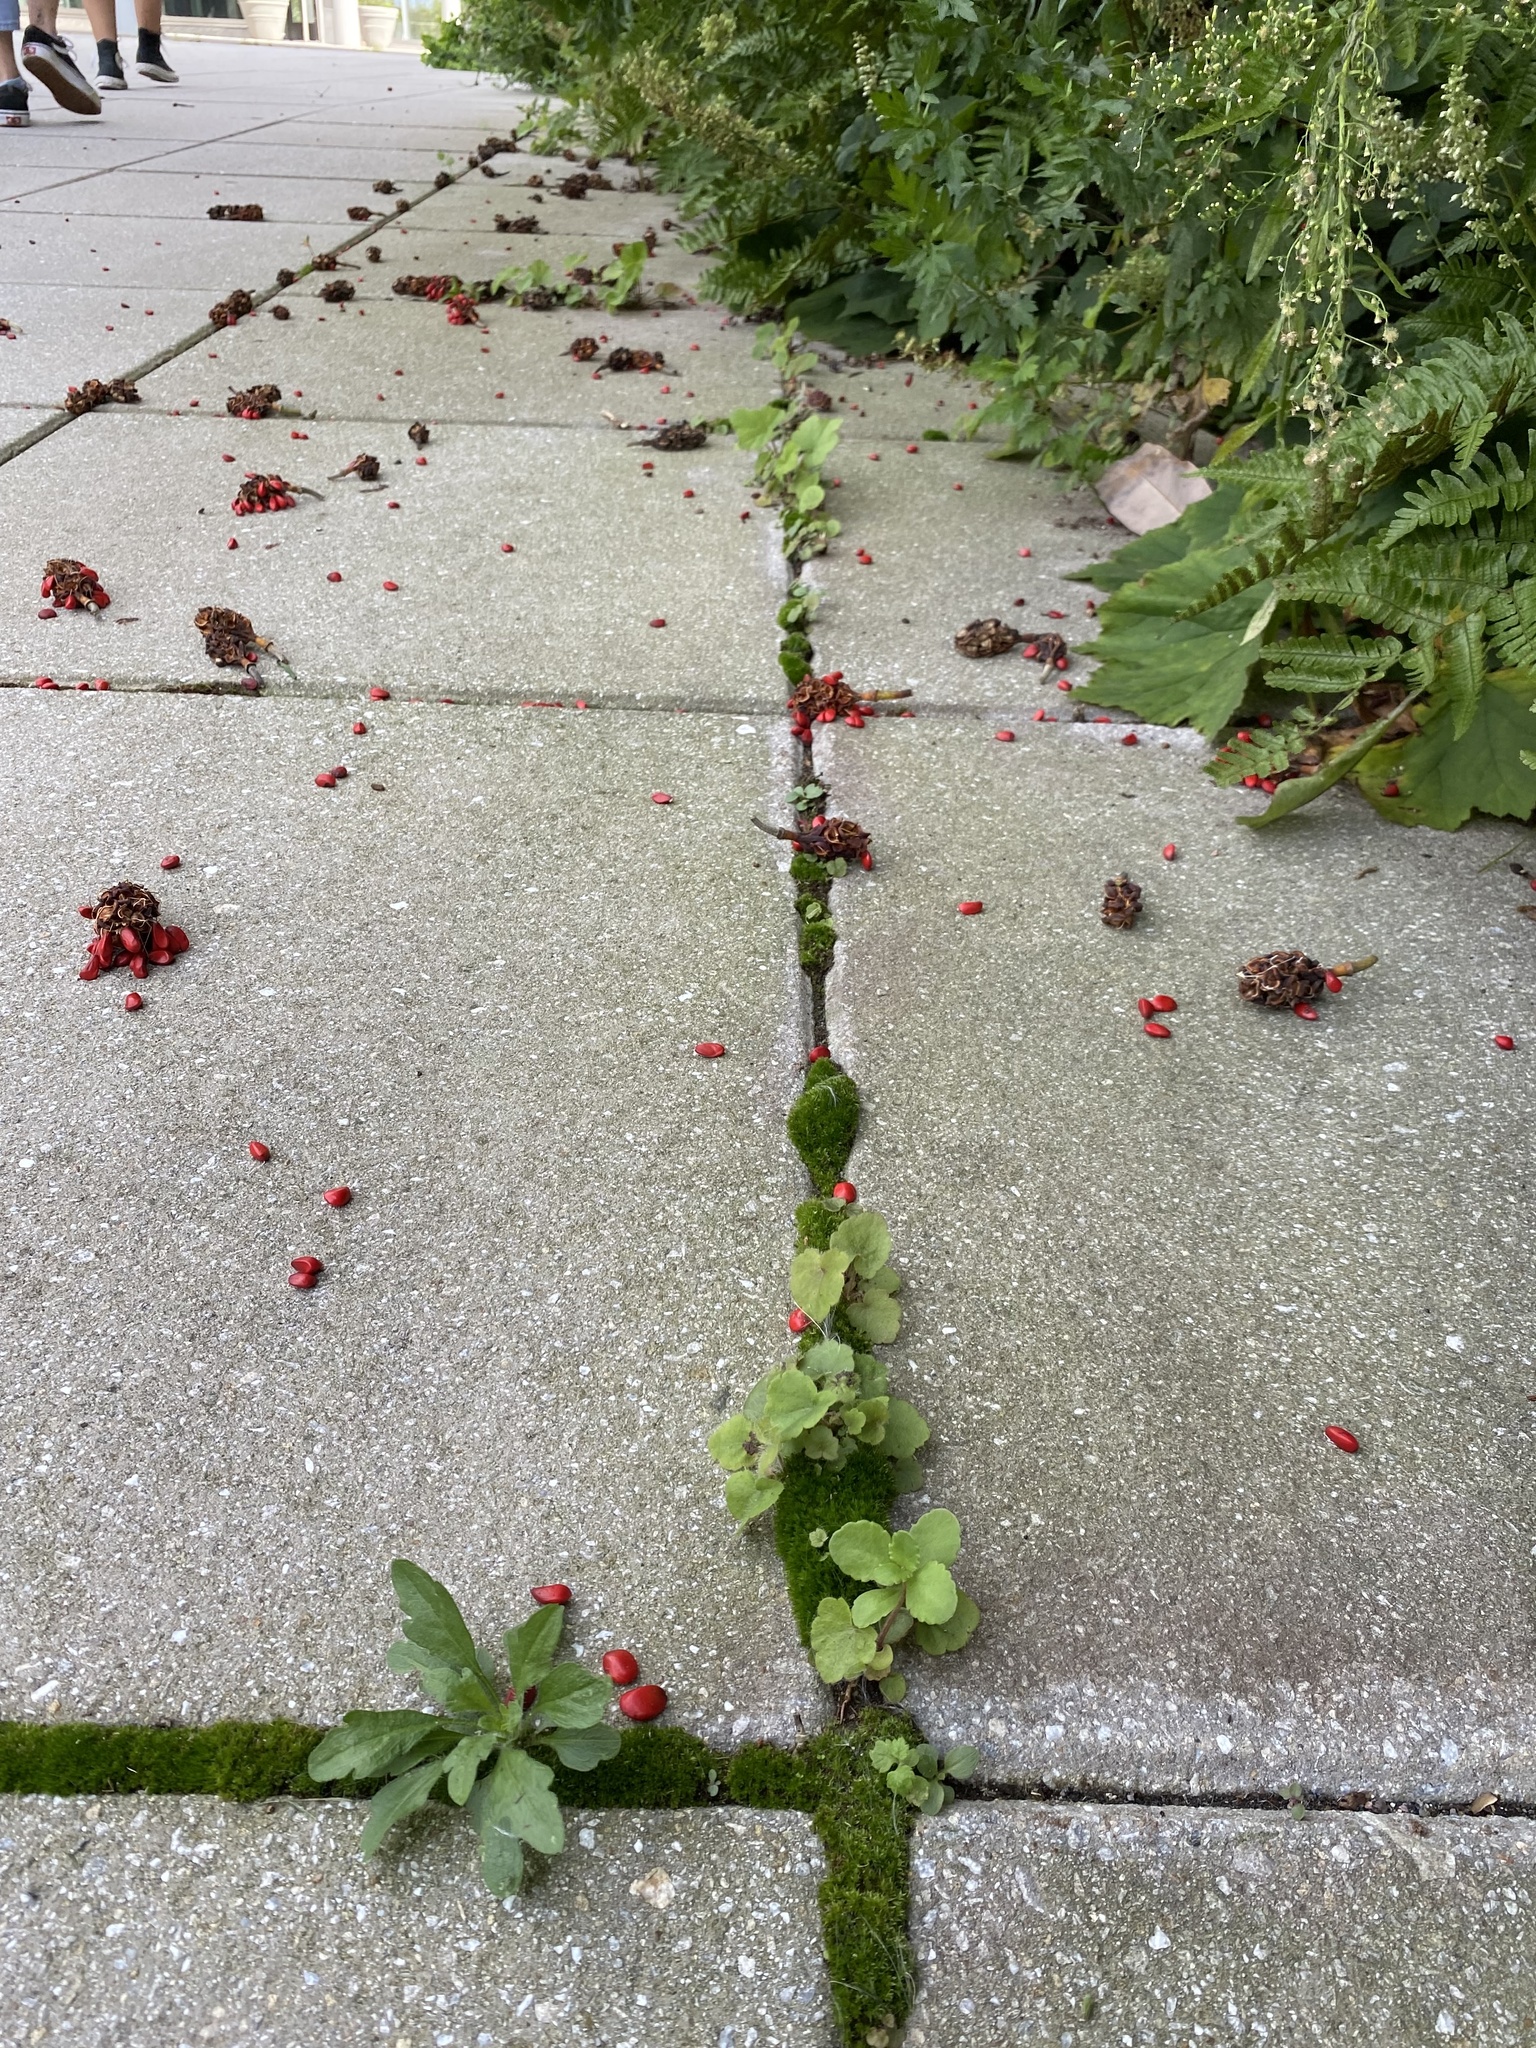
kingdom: Plantae
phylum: Tracheophyta
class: Magnoliopsida
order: Saxifragales
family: Saxifragaceae
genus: Heuchera
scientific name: Heuchera villosa
